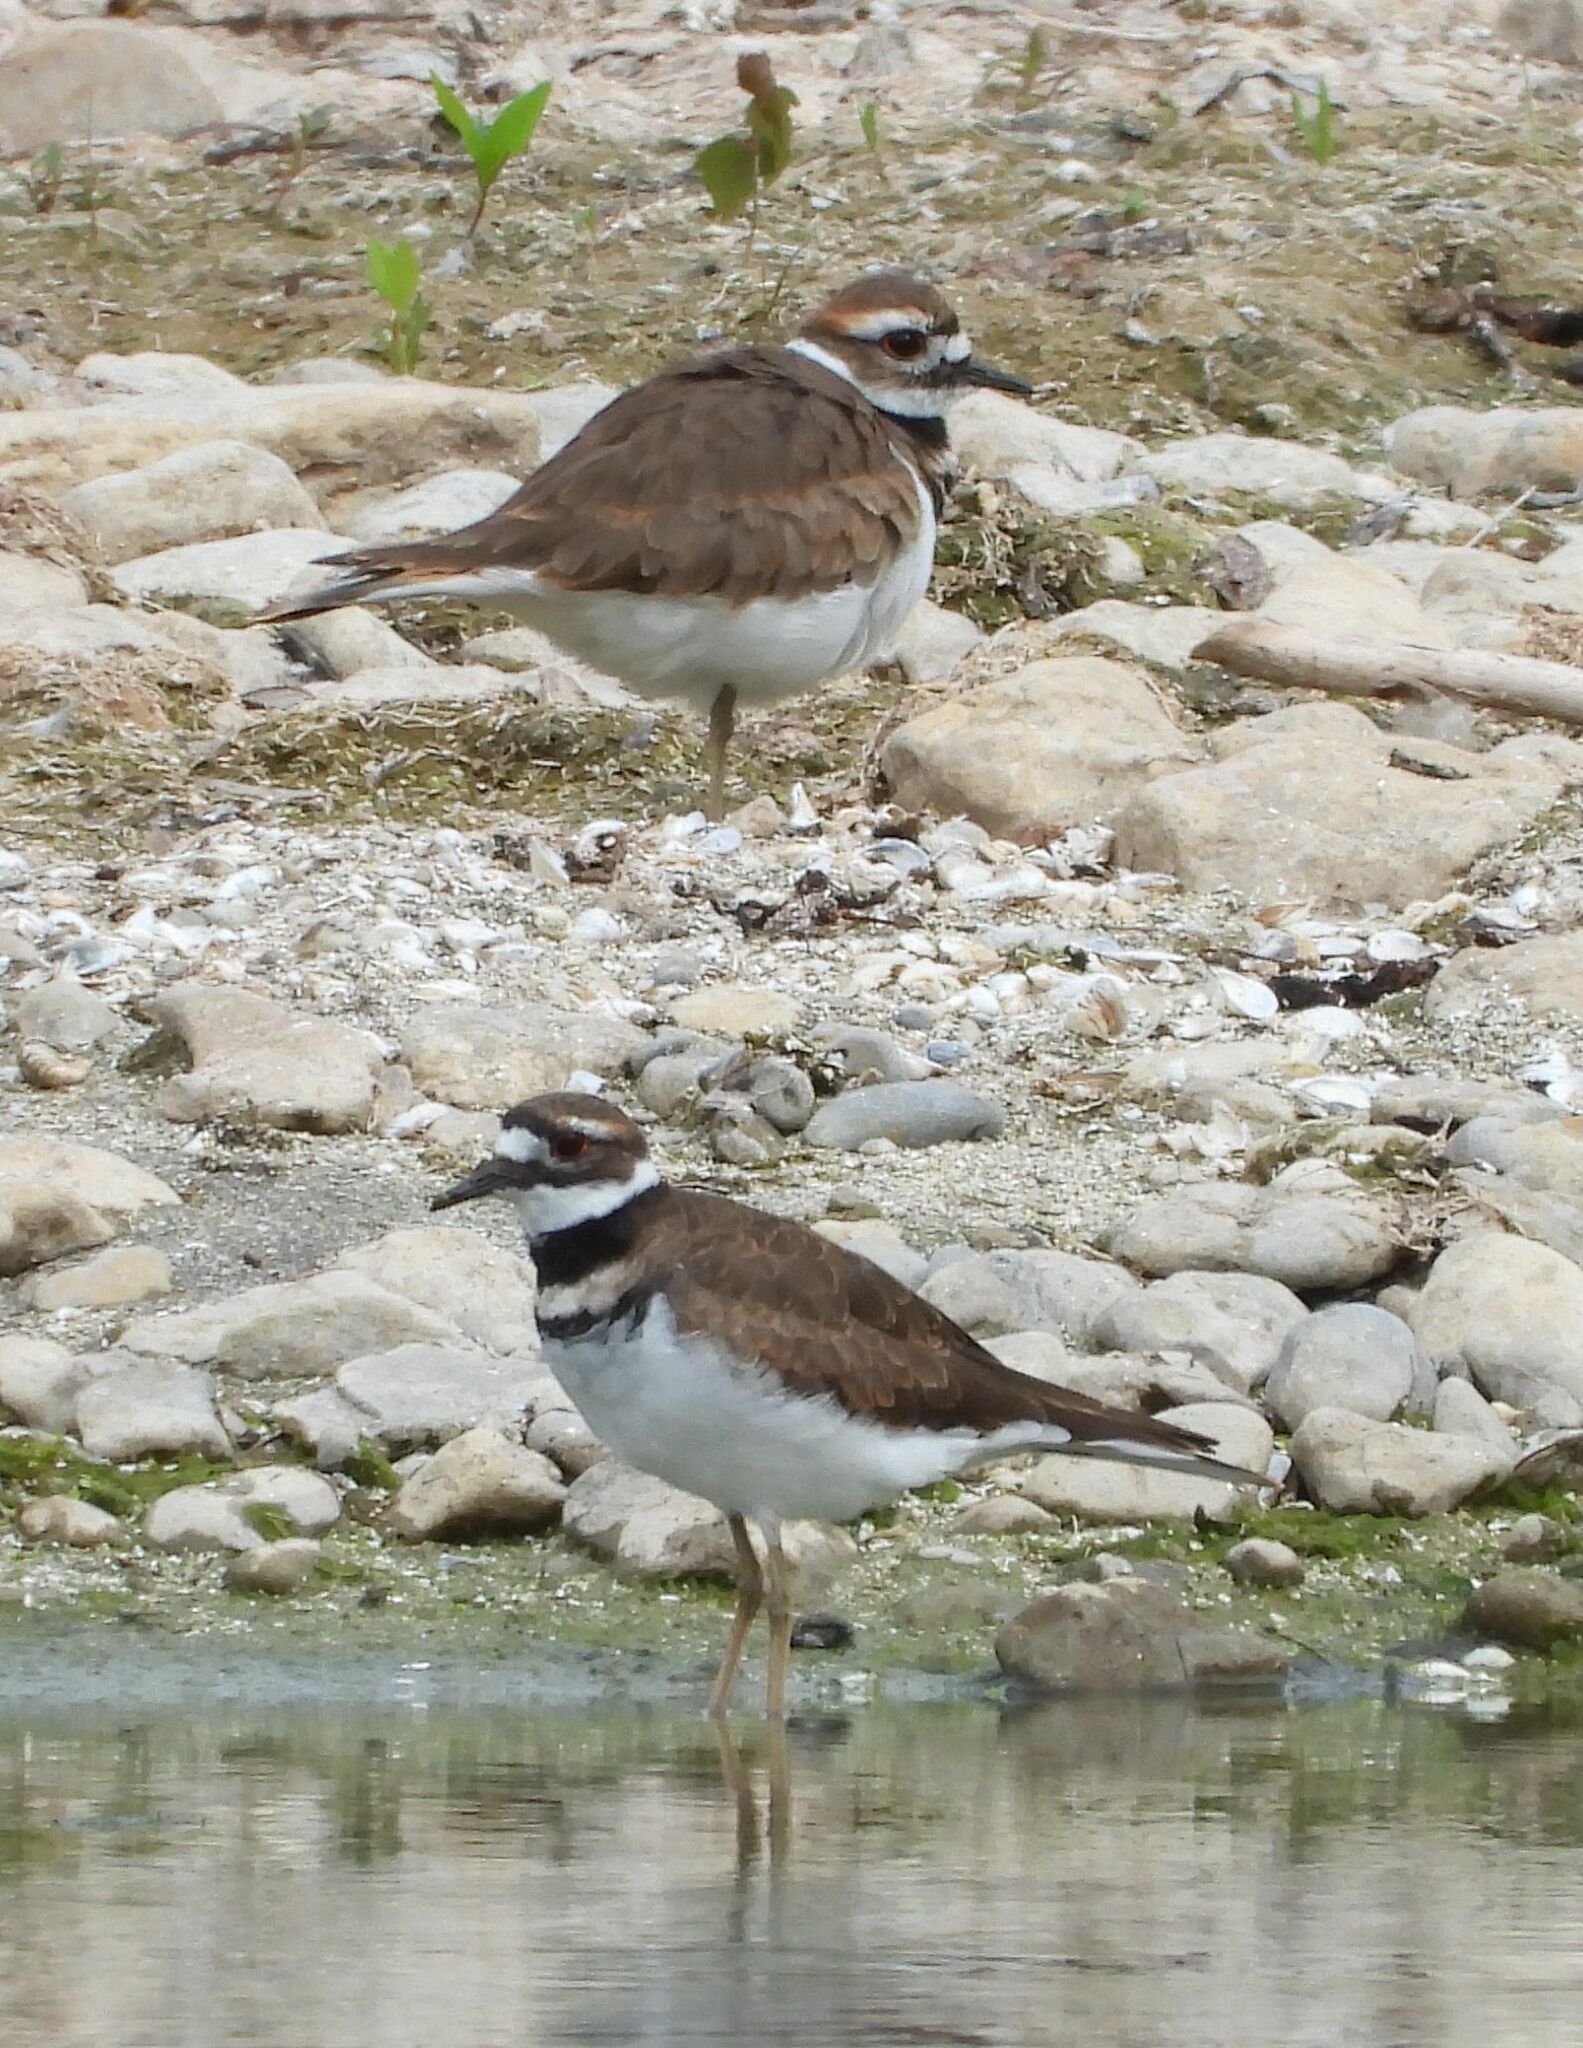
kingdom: Animalia
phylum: Chordata
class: Aves
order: Charadriiformes
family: Charadriidae
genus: Charadrius
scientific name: Charadrius vociferus
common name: Killdeer
